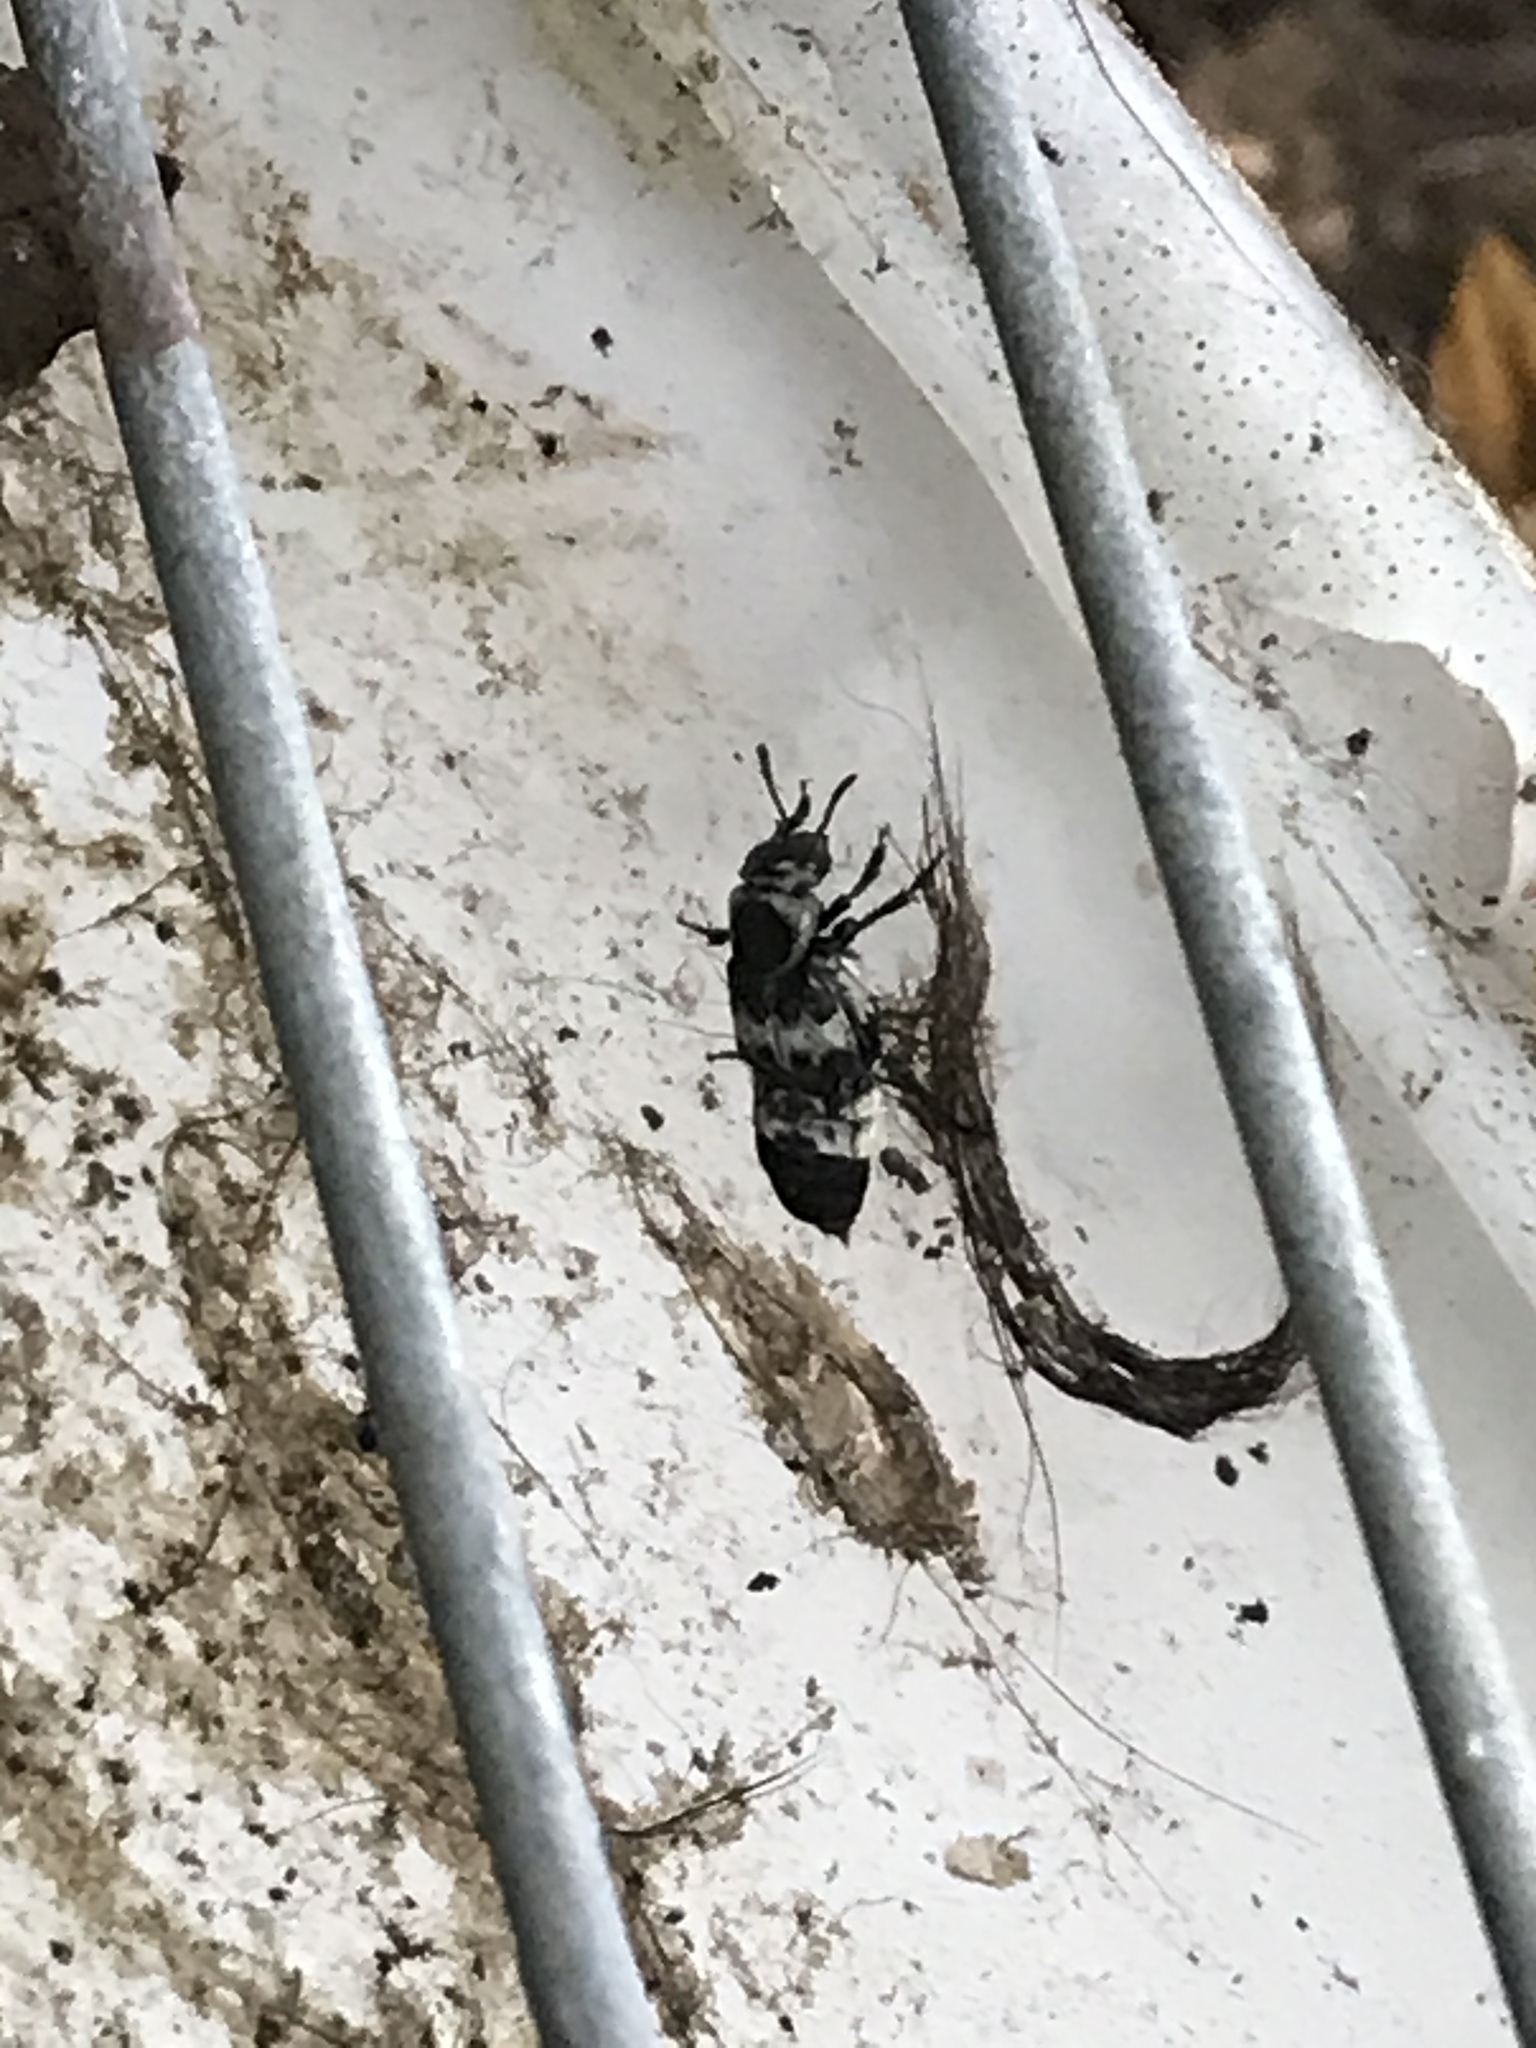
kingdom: Animalia
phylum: Arthropoda
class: Insecta
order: Coleoptera
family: Staphylinidae
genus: Creophilus
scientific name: Creophilus maxillosus
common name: Hairy rove beetle
